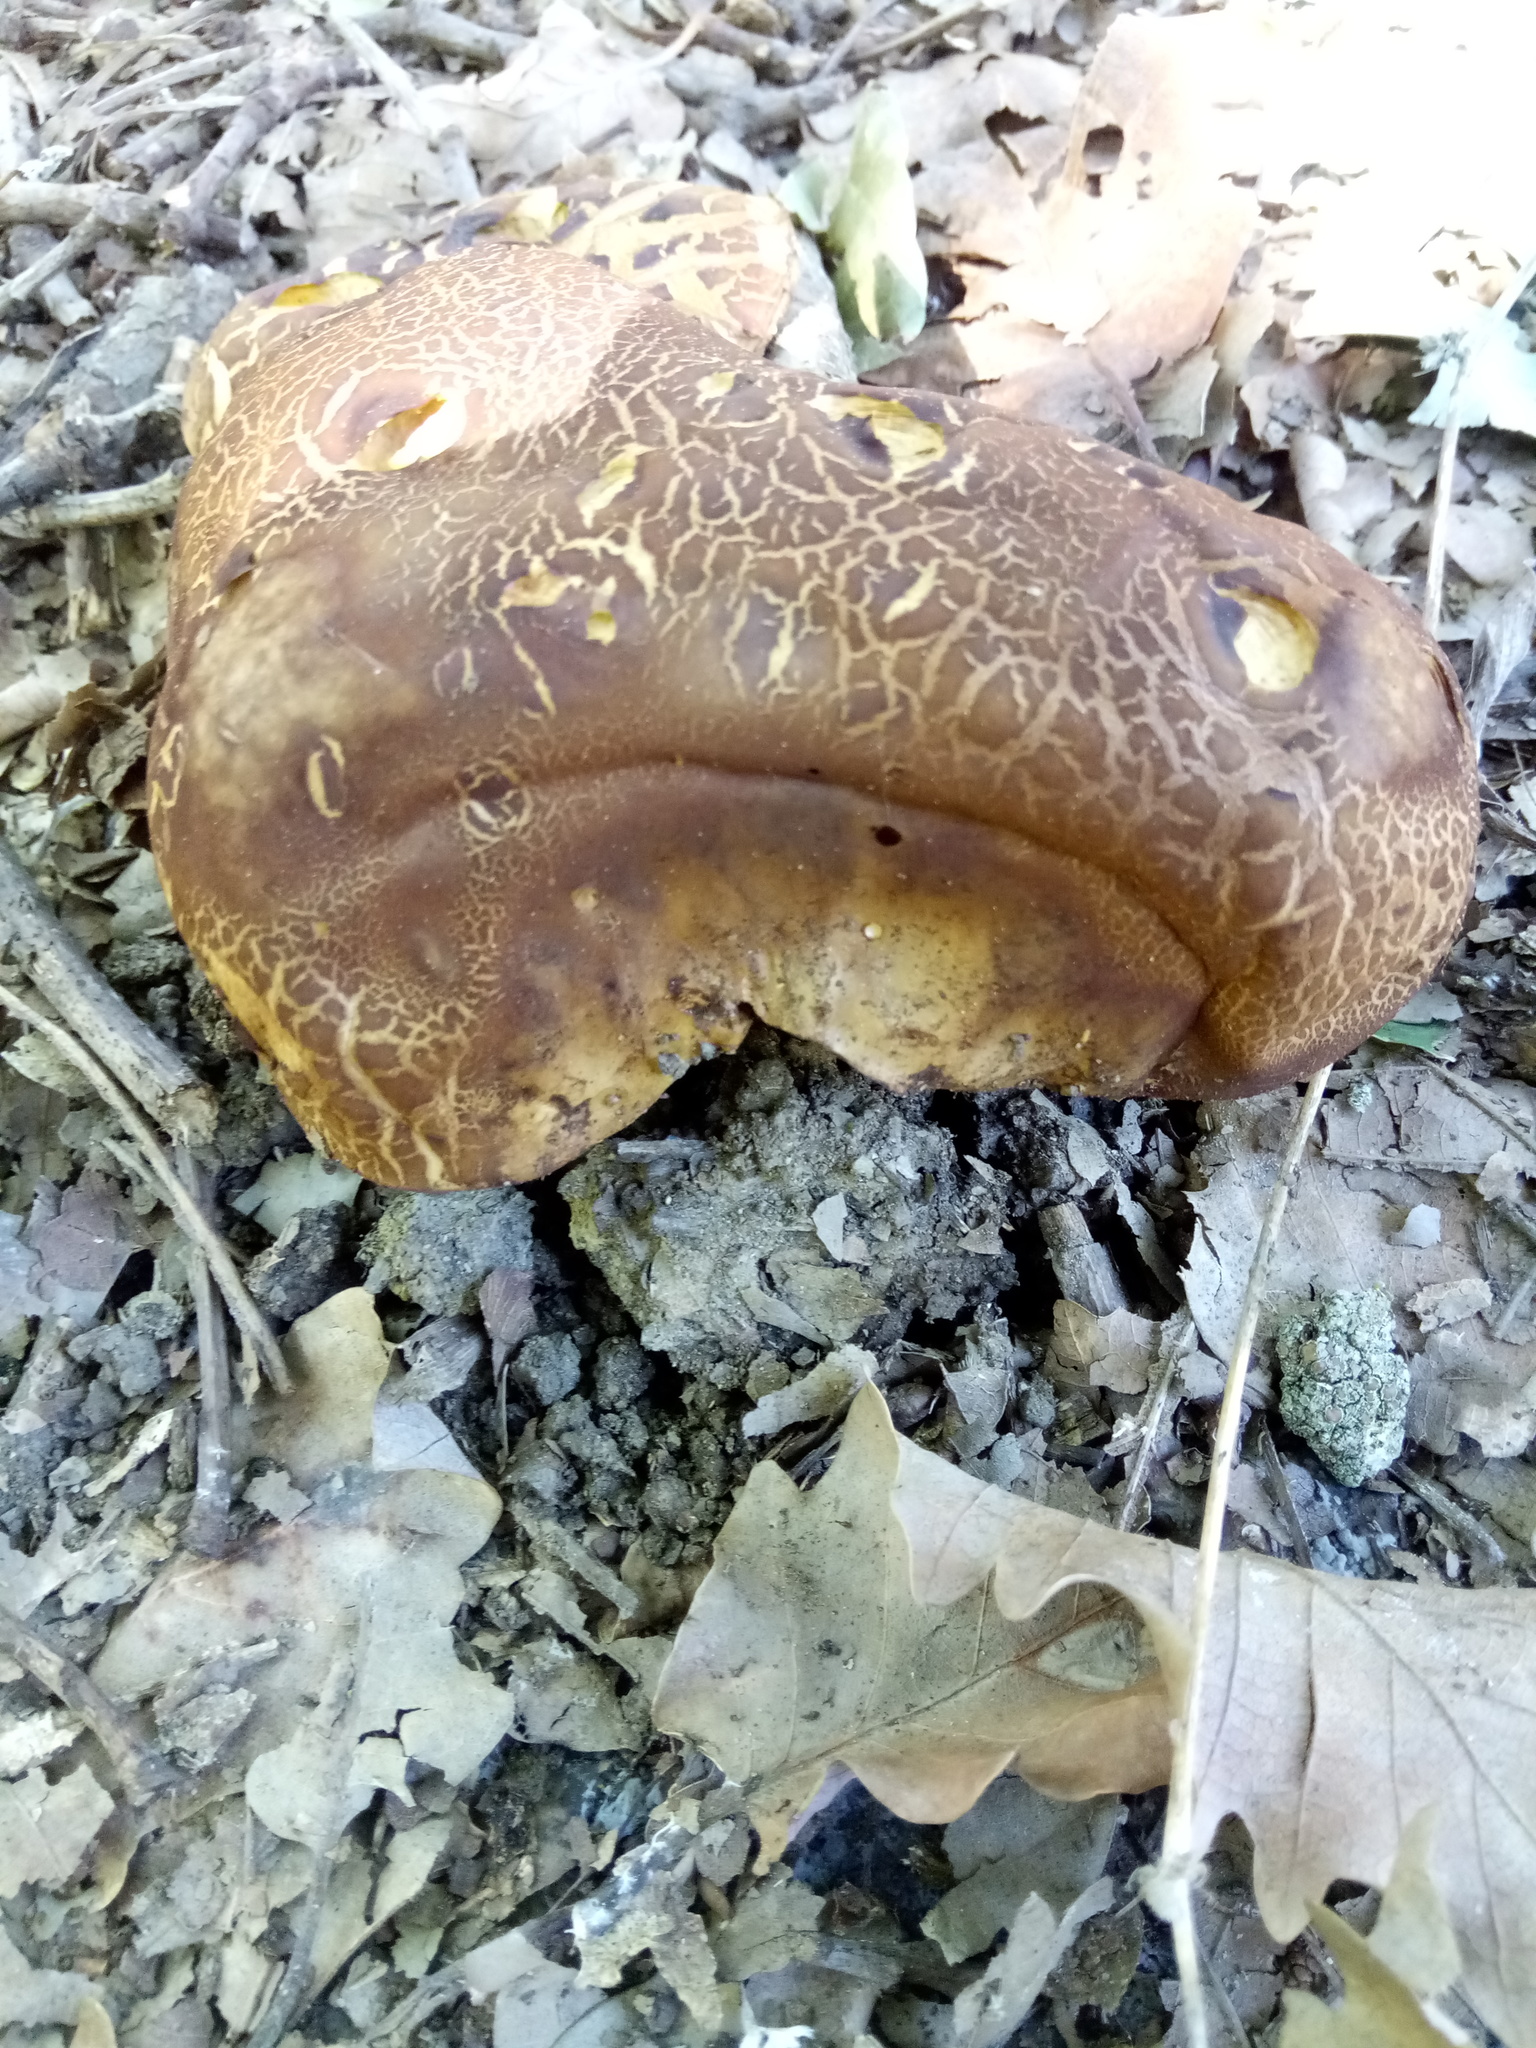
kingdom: Fungi
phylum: Basidiomycota
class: Agaricomycetes
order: Boletales
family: Boletaceae
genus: Lanmaoa
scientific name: Lanmaoa fragrans
